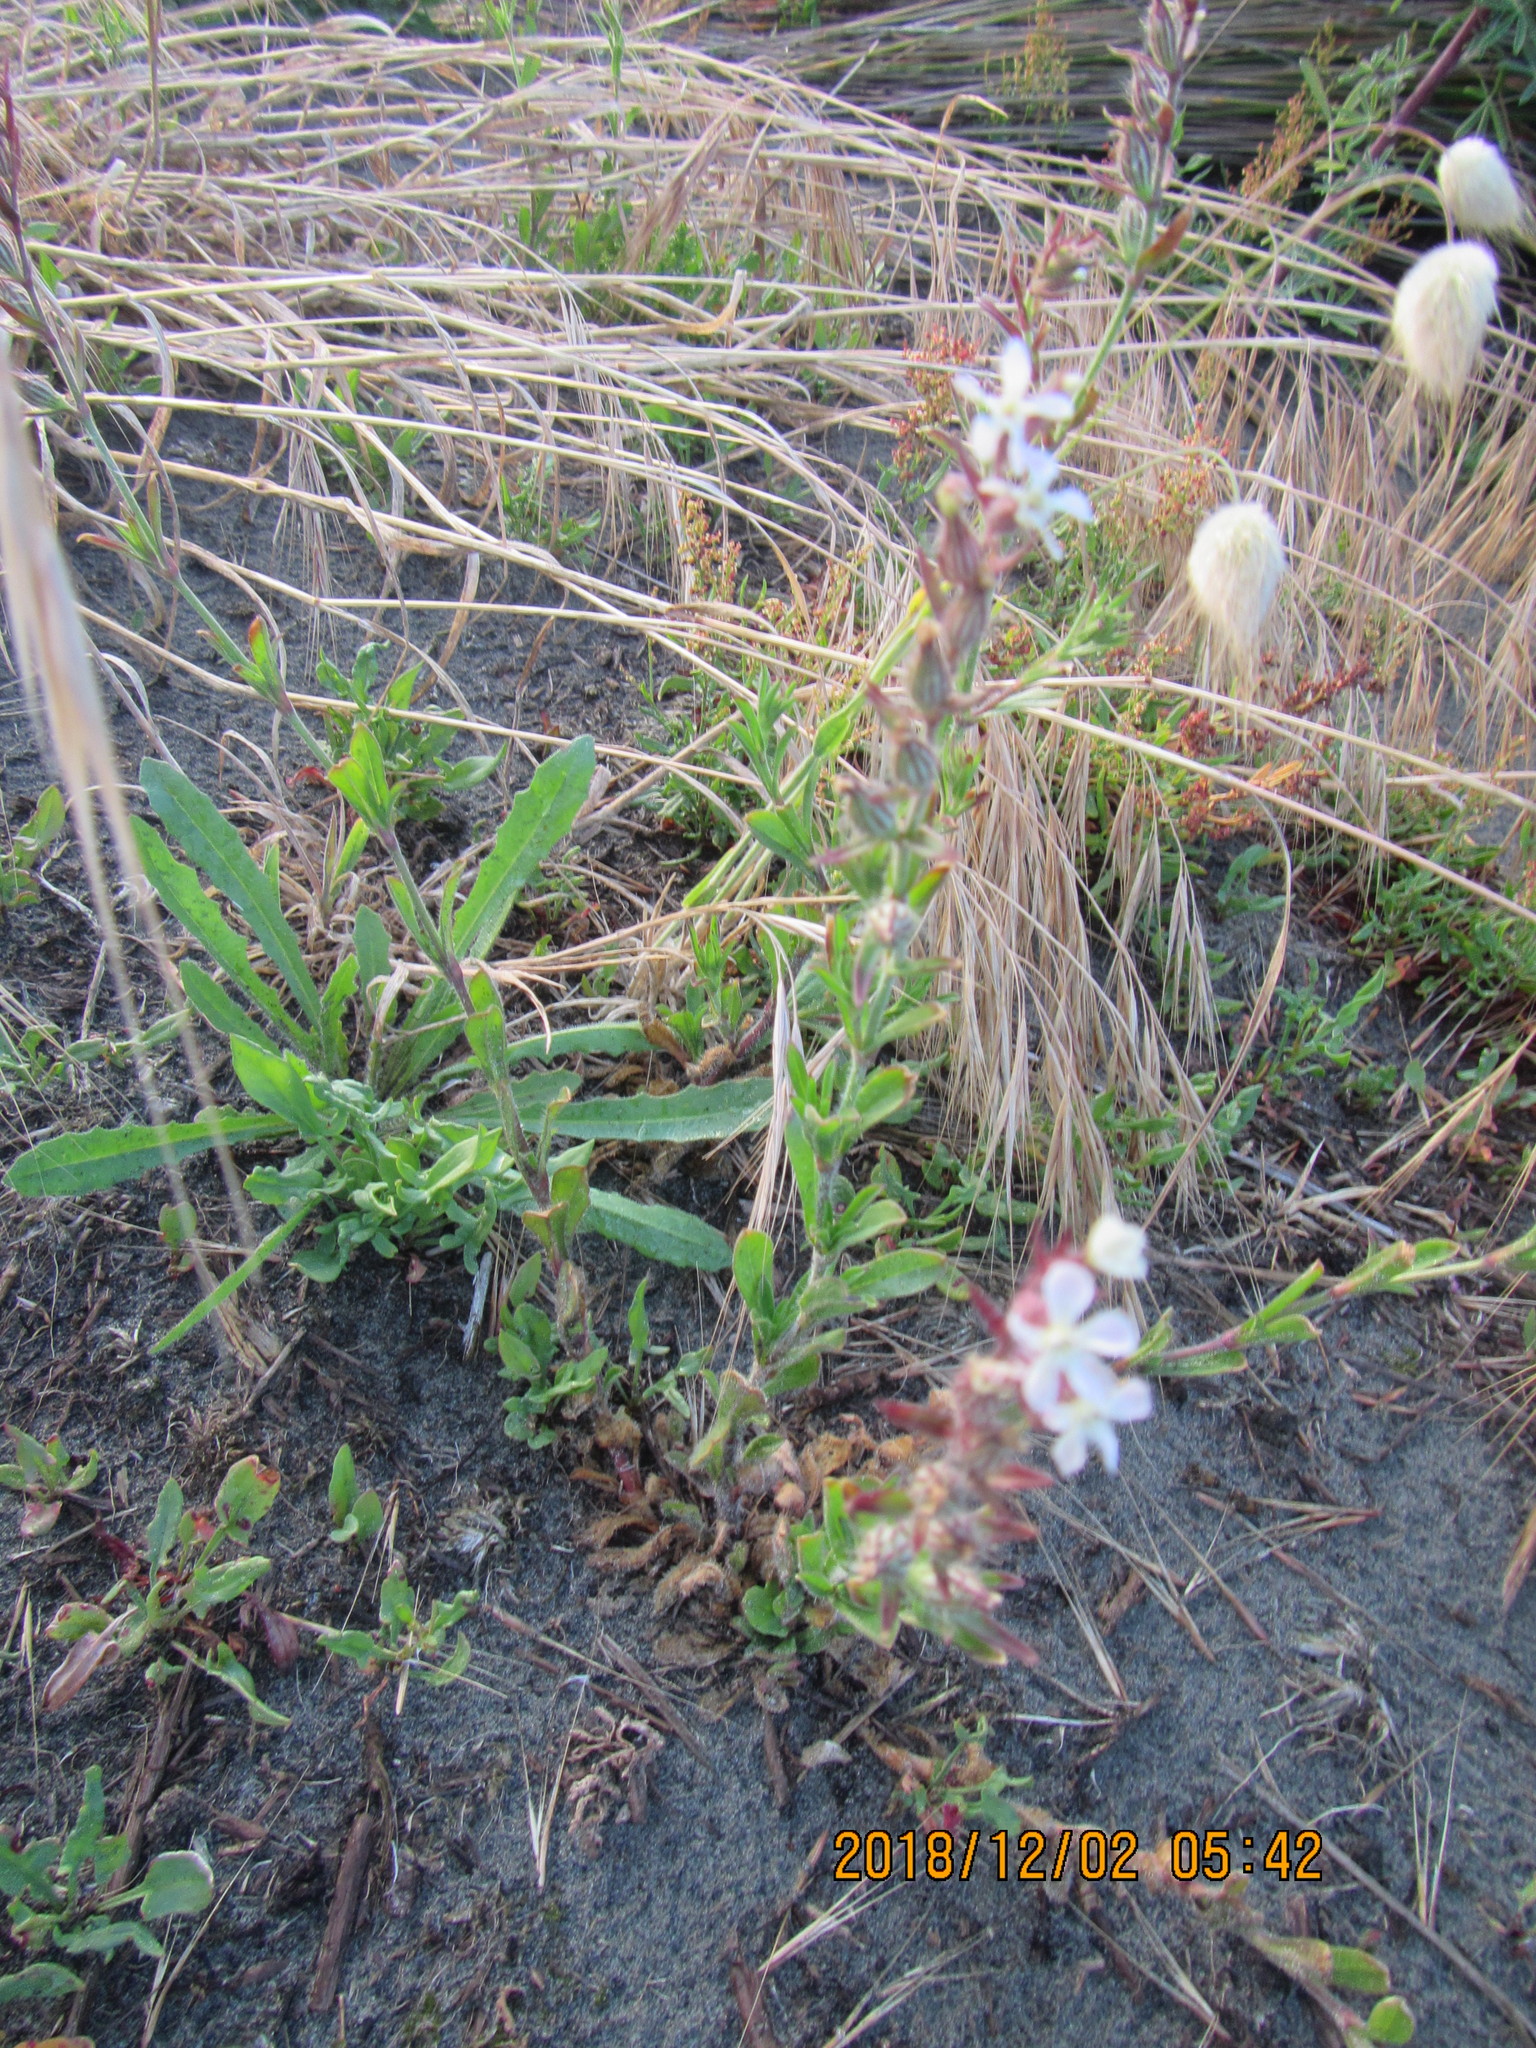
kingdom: Plantae
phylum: Tracheophyta
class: Magnoliopsida
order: Caryophyllales
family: Caryophyllaceae
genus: Silene
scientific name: Silene gallica
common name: Small-flowered catchfly
